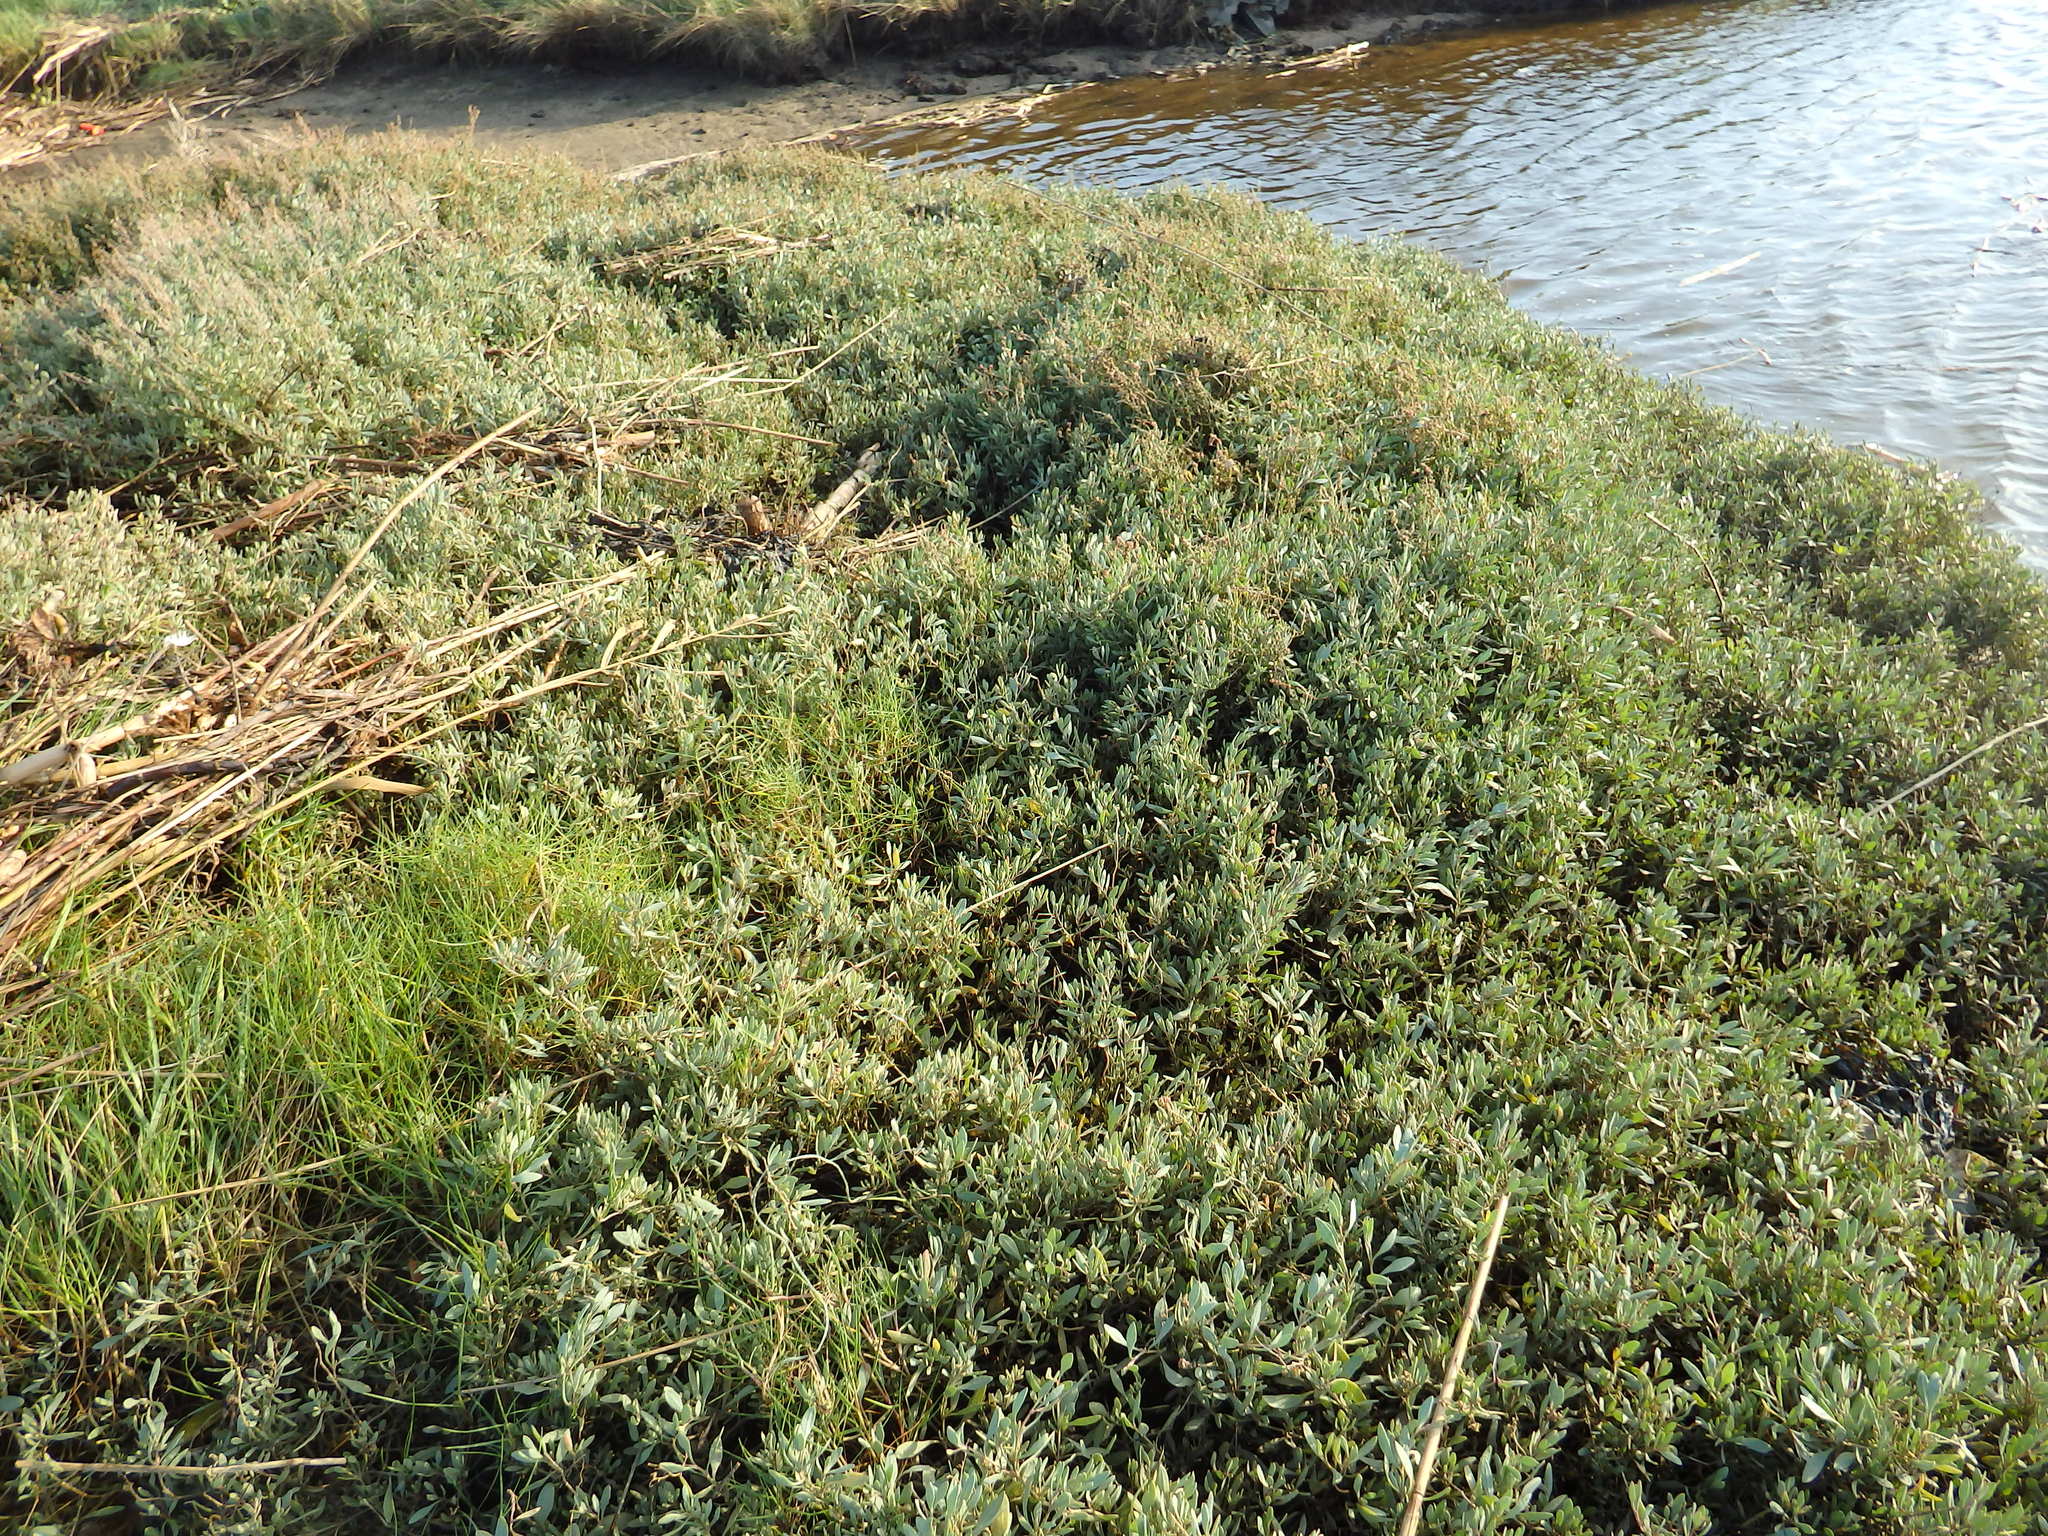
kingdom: Plantae
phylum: Tracheophyta
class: Magnoliopsida
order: Caryophyllales
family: Amaranthaceae
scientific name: Amaranthaceae
